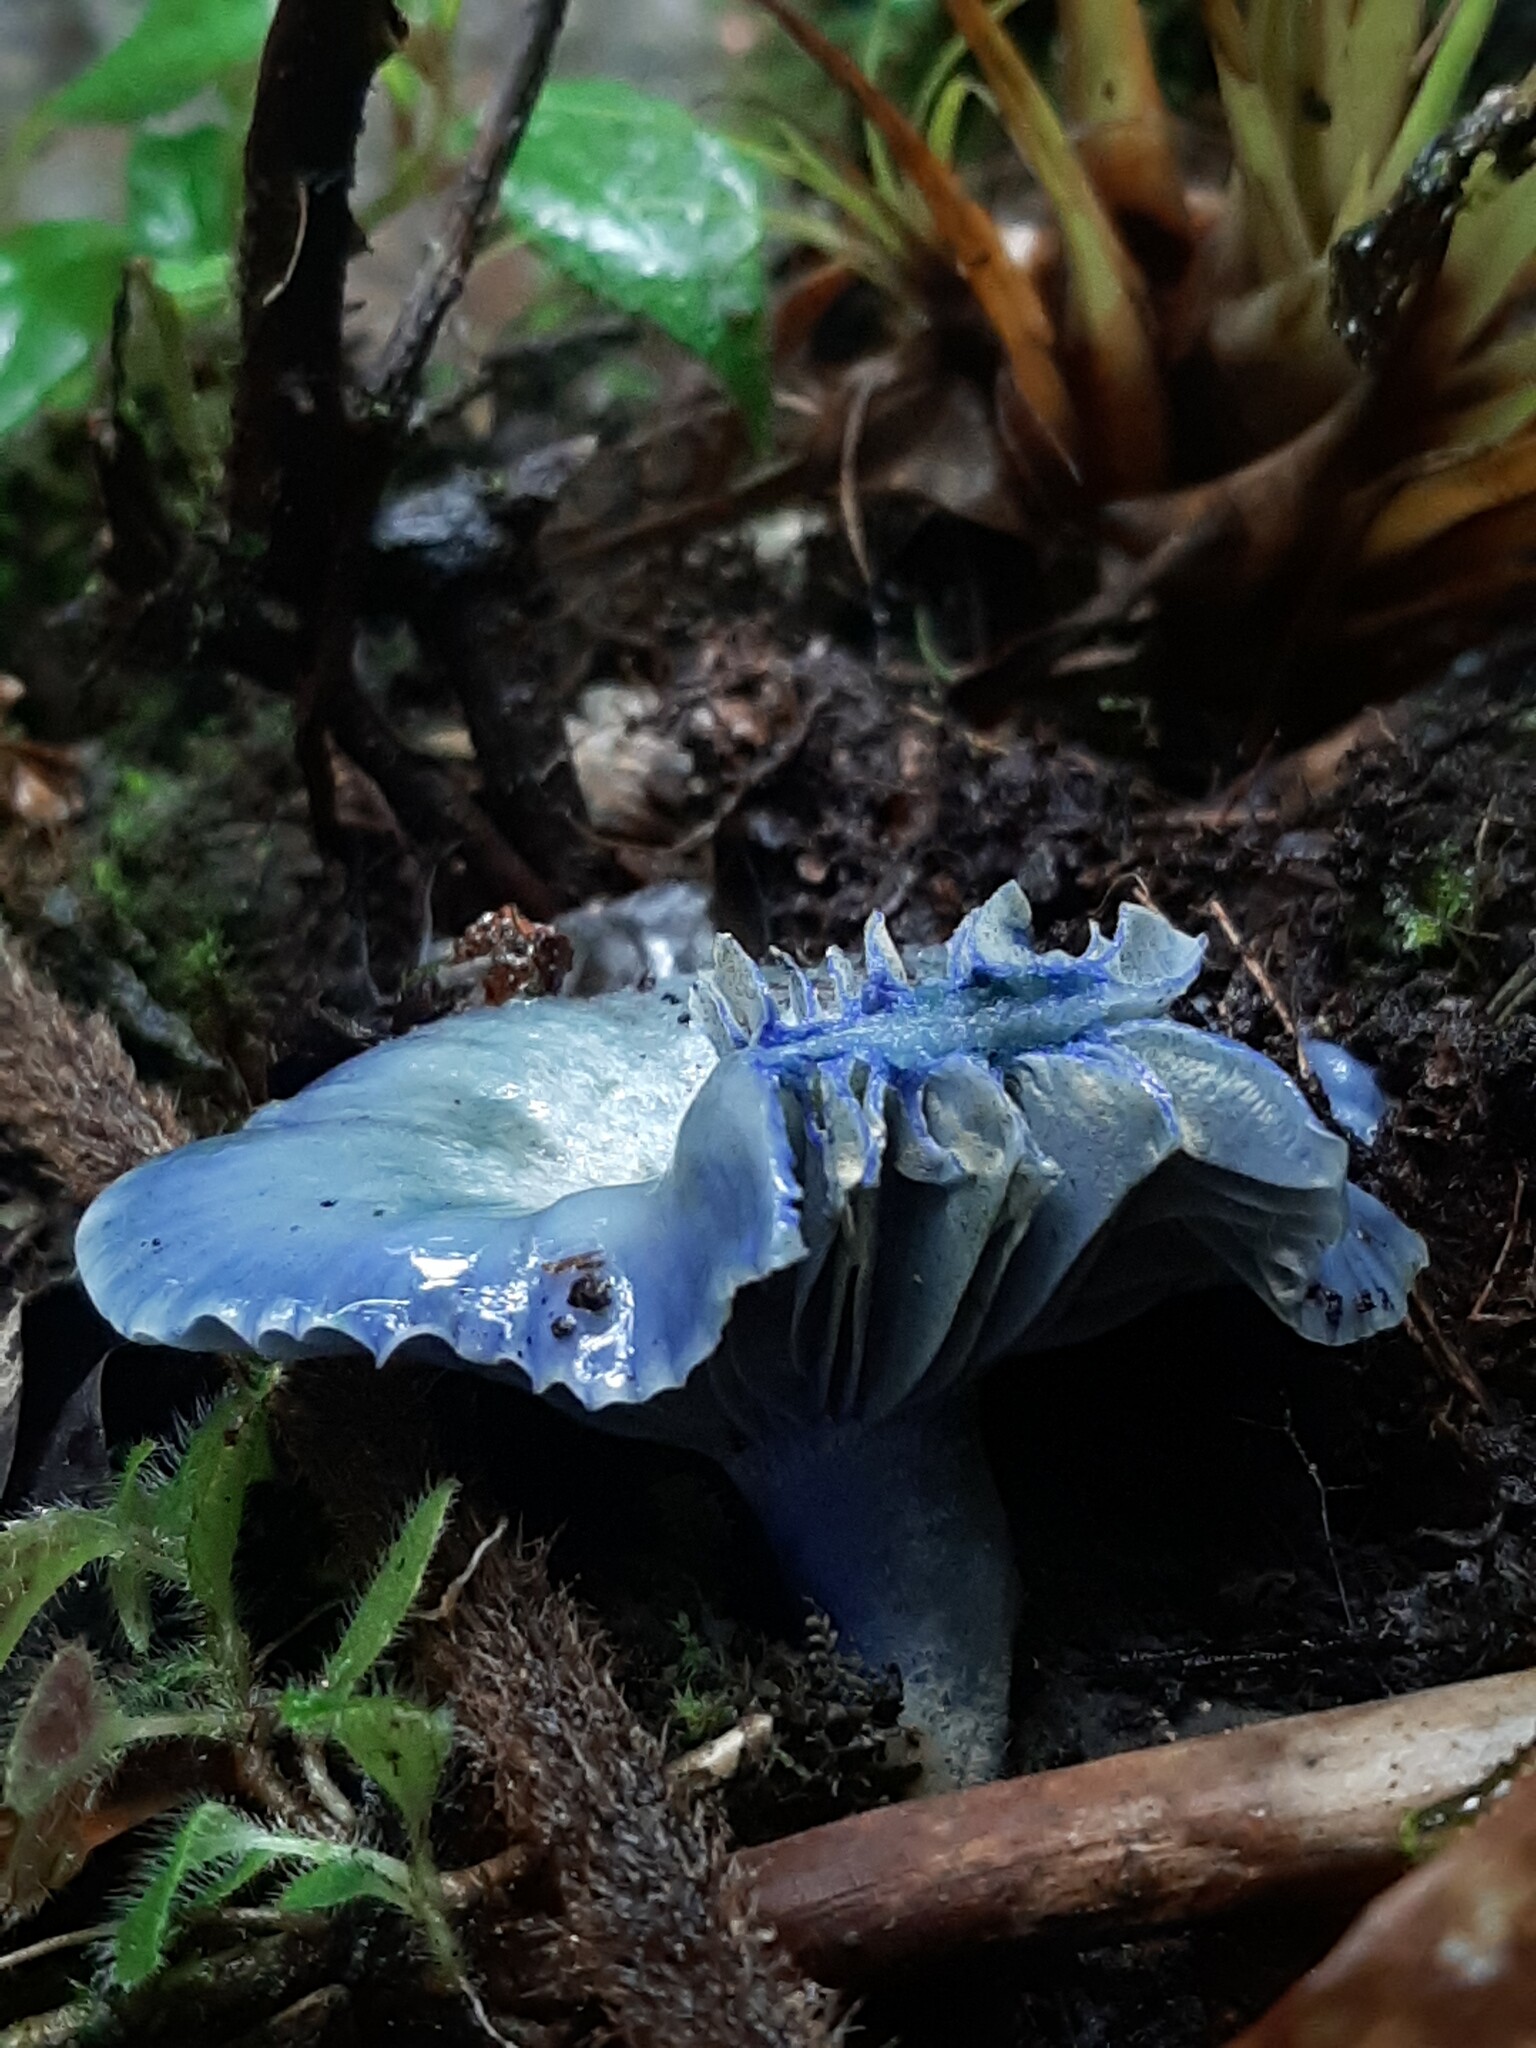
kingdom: Fungi
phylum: Basidiomycota
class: Agaricomycetes
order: Russulales
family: Russulaceae
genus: Lactarius
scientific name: Lactarius indigo
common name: Indigo milk cap
